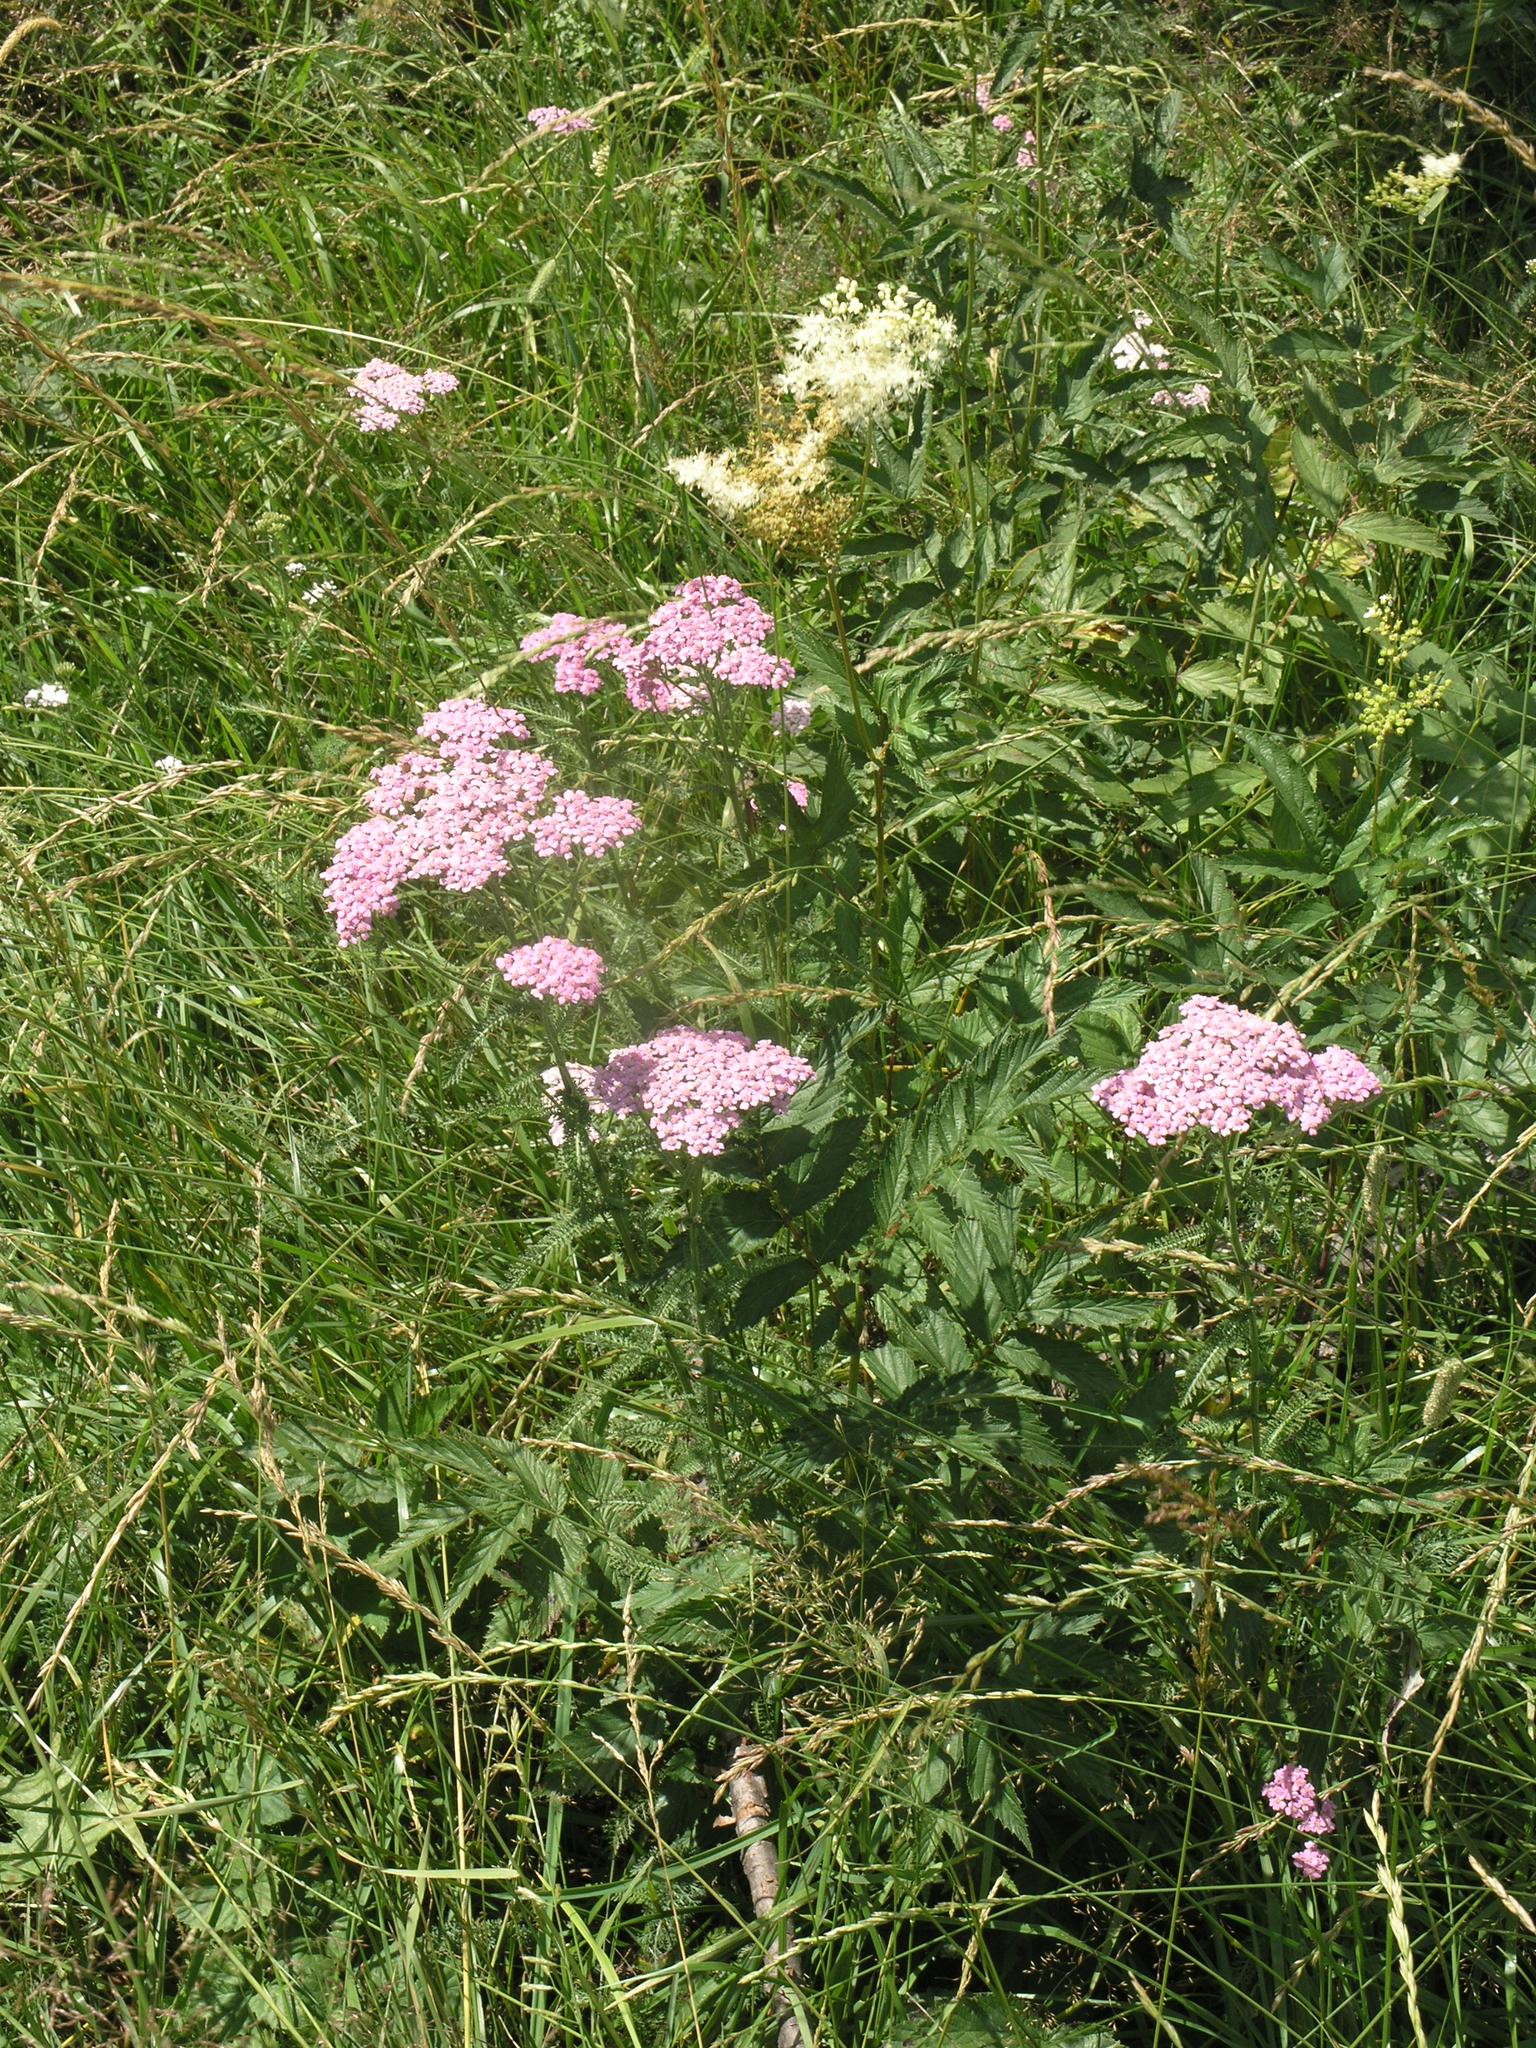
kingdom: Plantae
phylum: Tracheophyta
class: Magnoliopsida
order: Asterales
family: Asteraceae
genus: Achillea
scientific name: Achillea millefolium
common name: Yarrow
